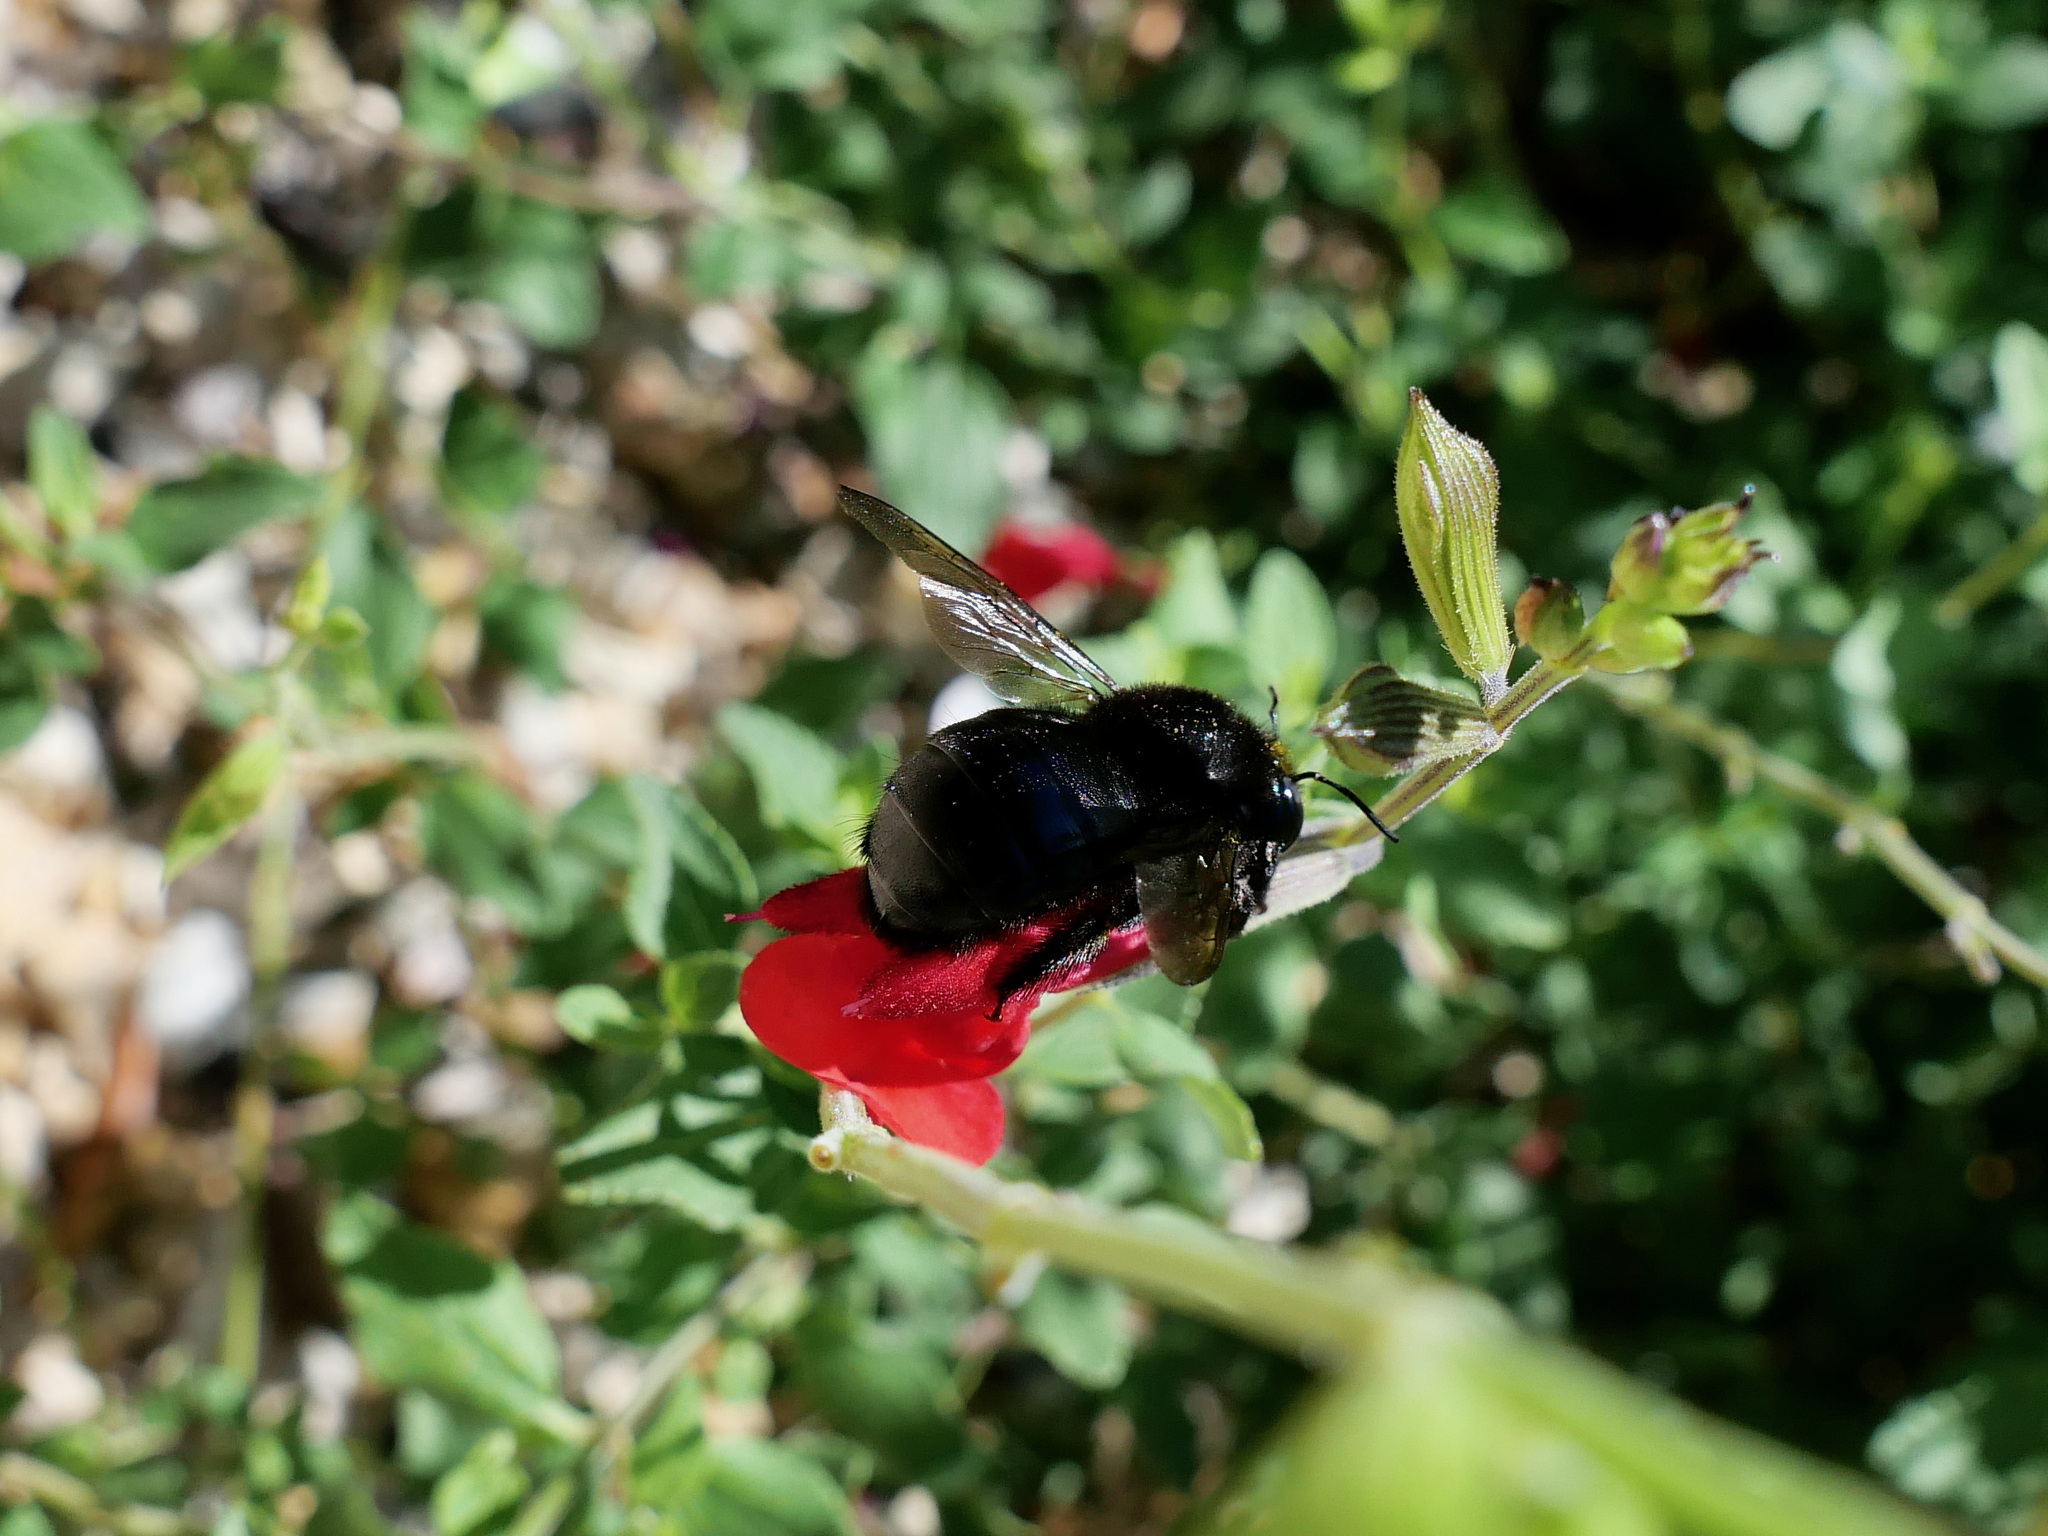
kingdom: Animalia
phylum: Arthropoda
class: Insecta
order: Hymenoptera
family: Apidae
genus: Xylocopa
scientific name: Xylocopa tabaniformis
